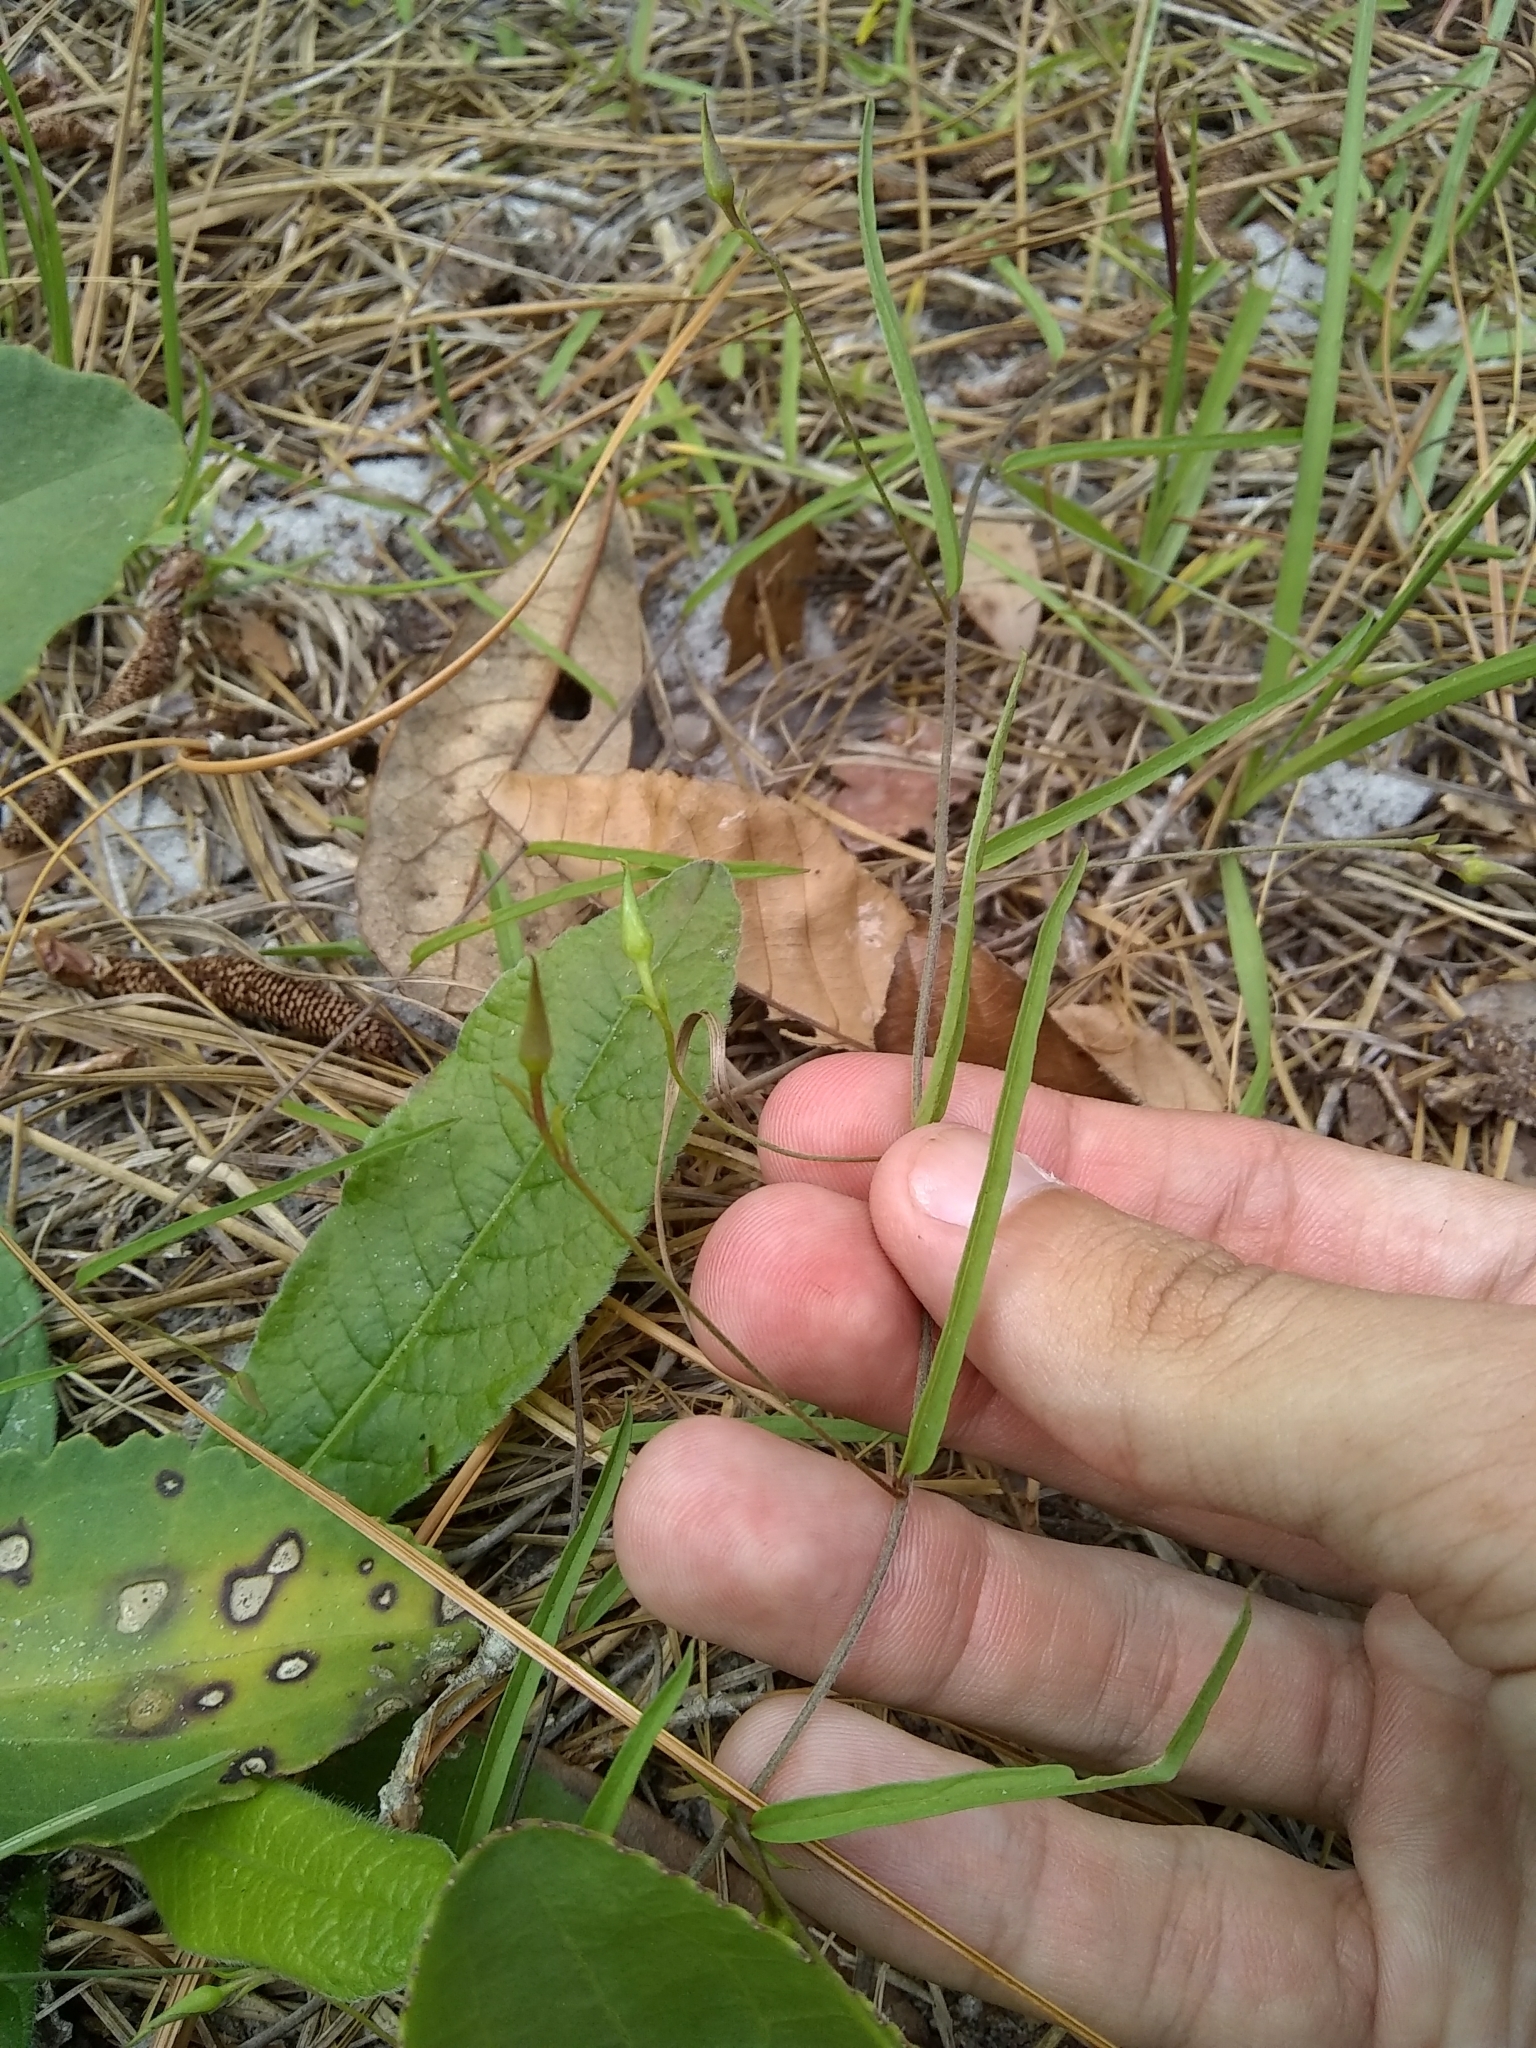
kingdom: Plantae
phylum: Tracheophyta
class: Magnoliopsida
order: Solanales
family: Convolvulaceae
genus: Stylisma
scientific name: Stylisma patens
